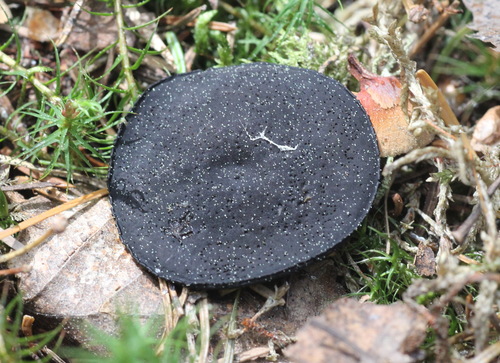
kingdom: Fungi
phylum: Ascomycota
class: Pezizomycetes
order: Pezizales
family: Sarcosomataceae
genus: Pseudoplectania
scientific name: Pseudoplectania melaena
